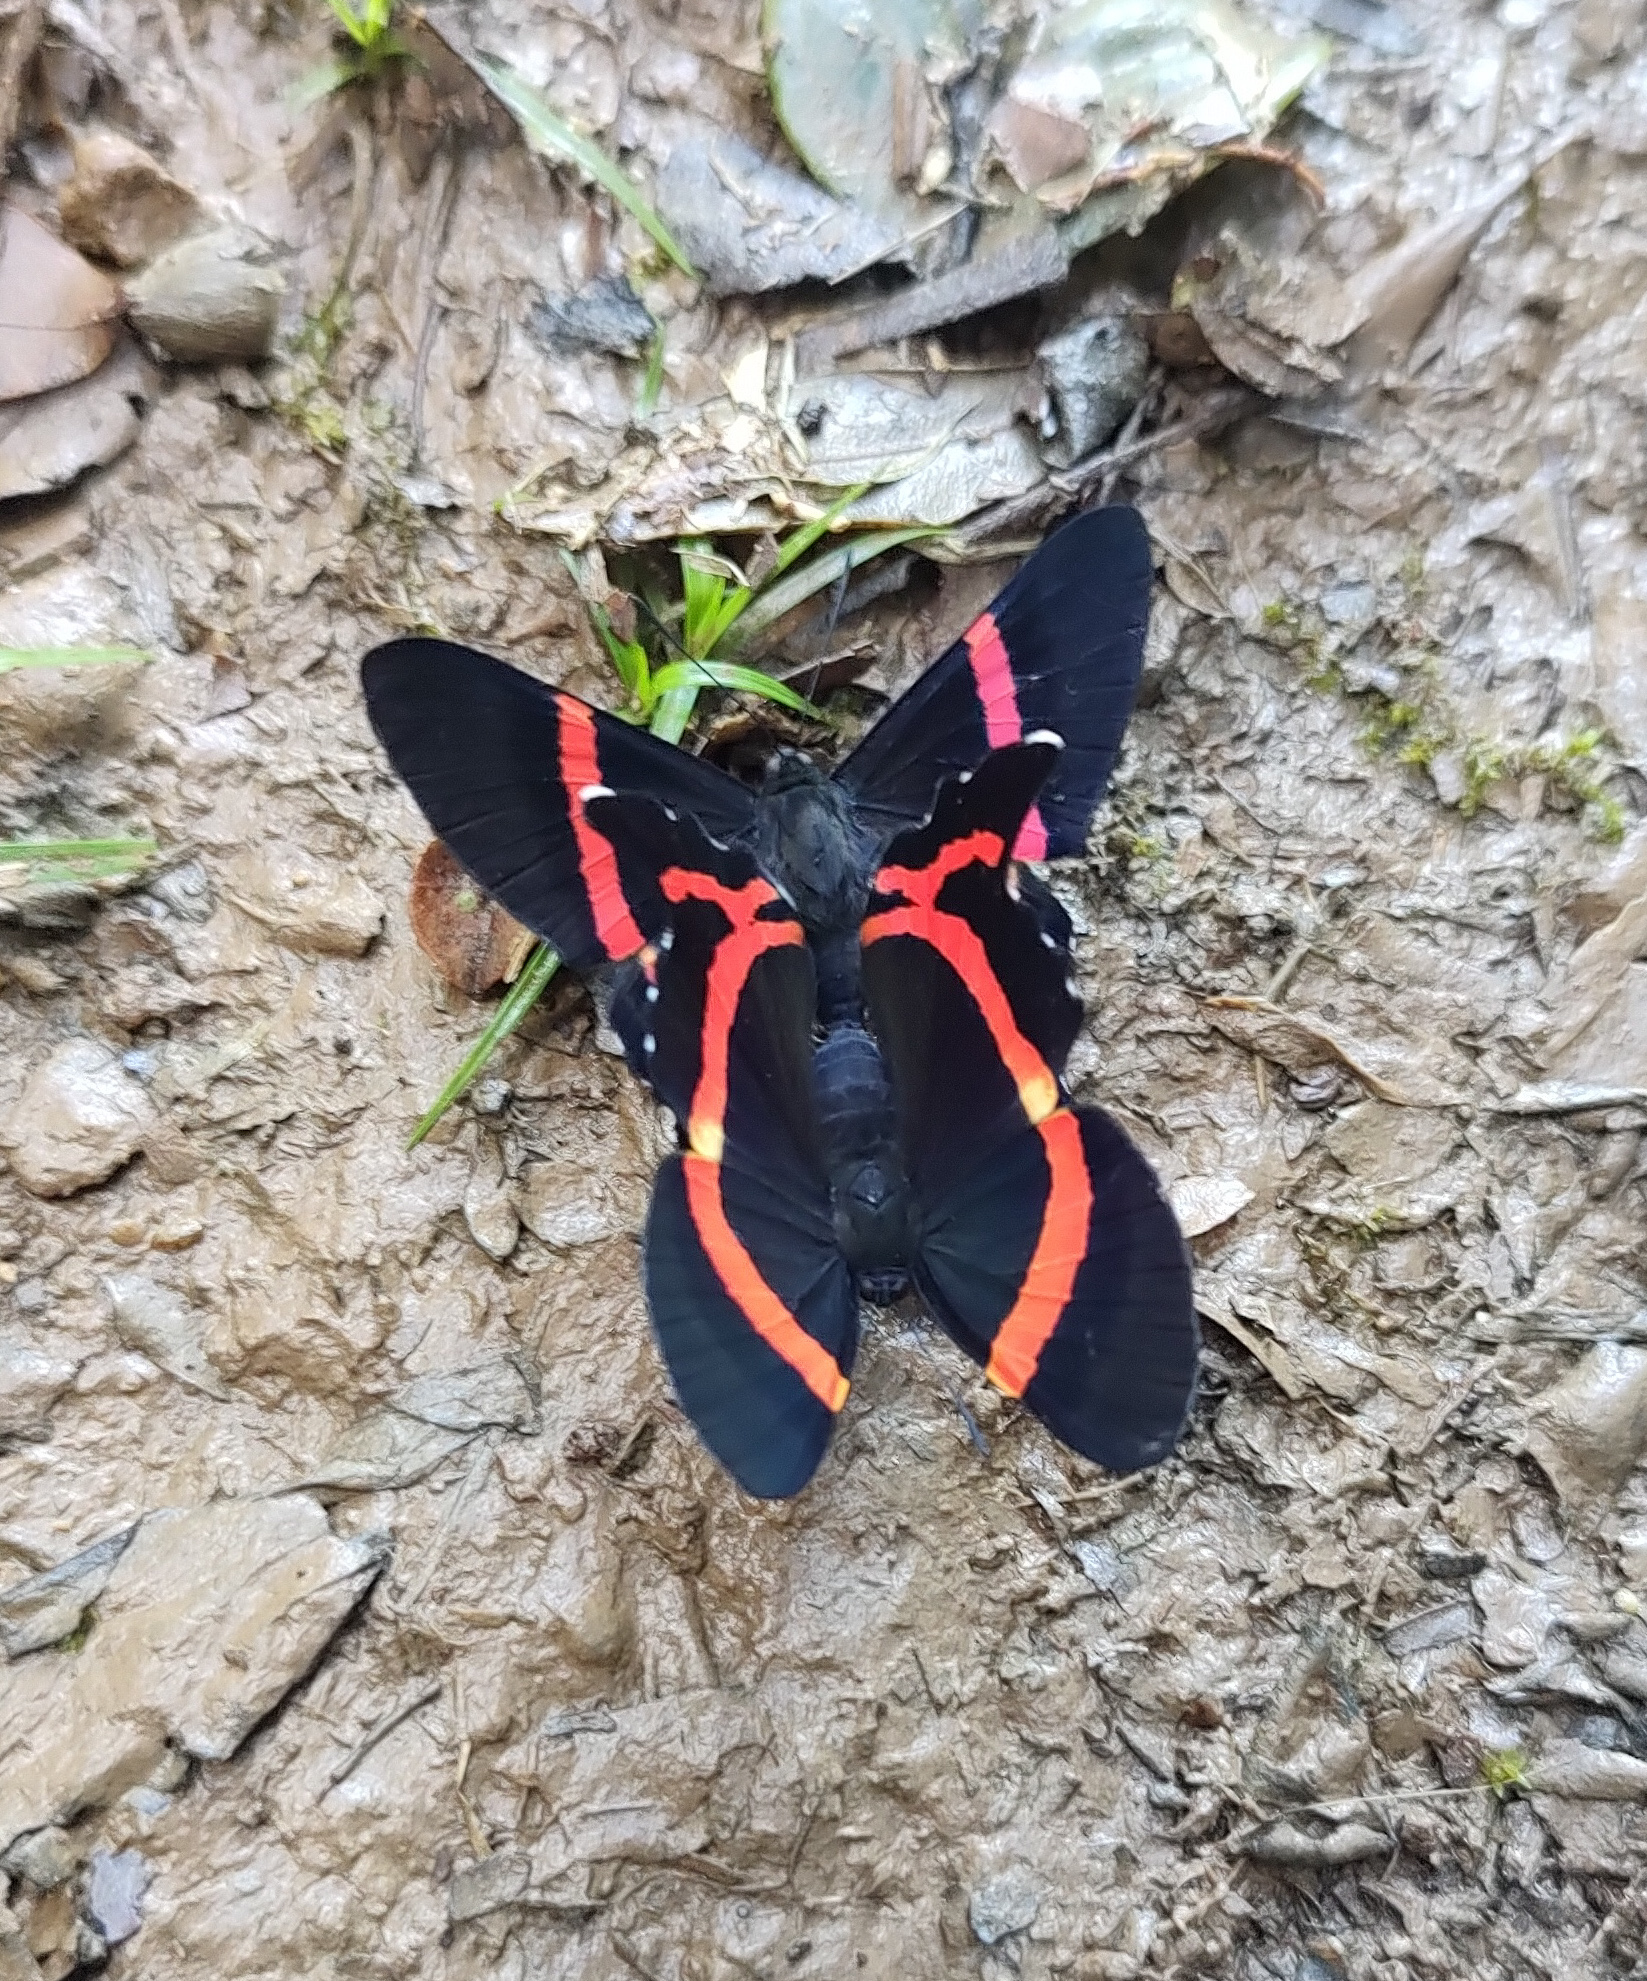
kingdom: Animalia
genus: Ancyluris
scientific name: Ancyluris aulestes
